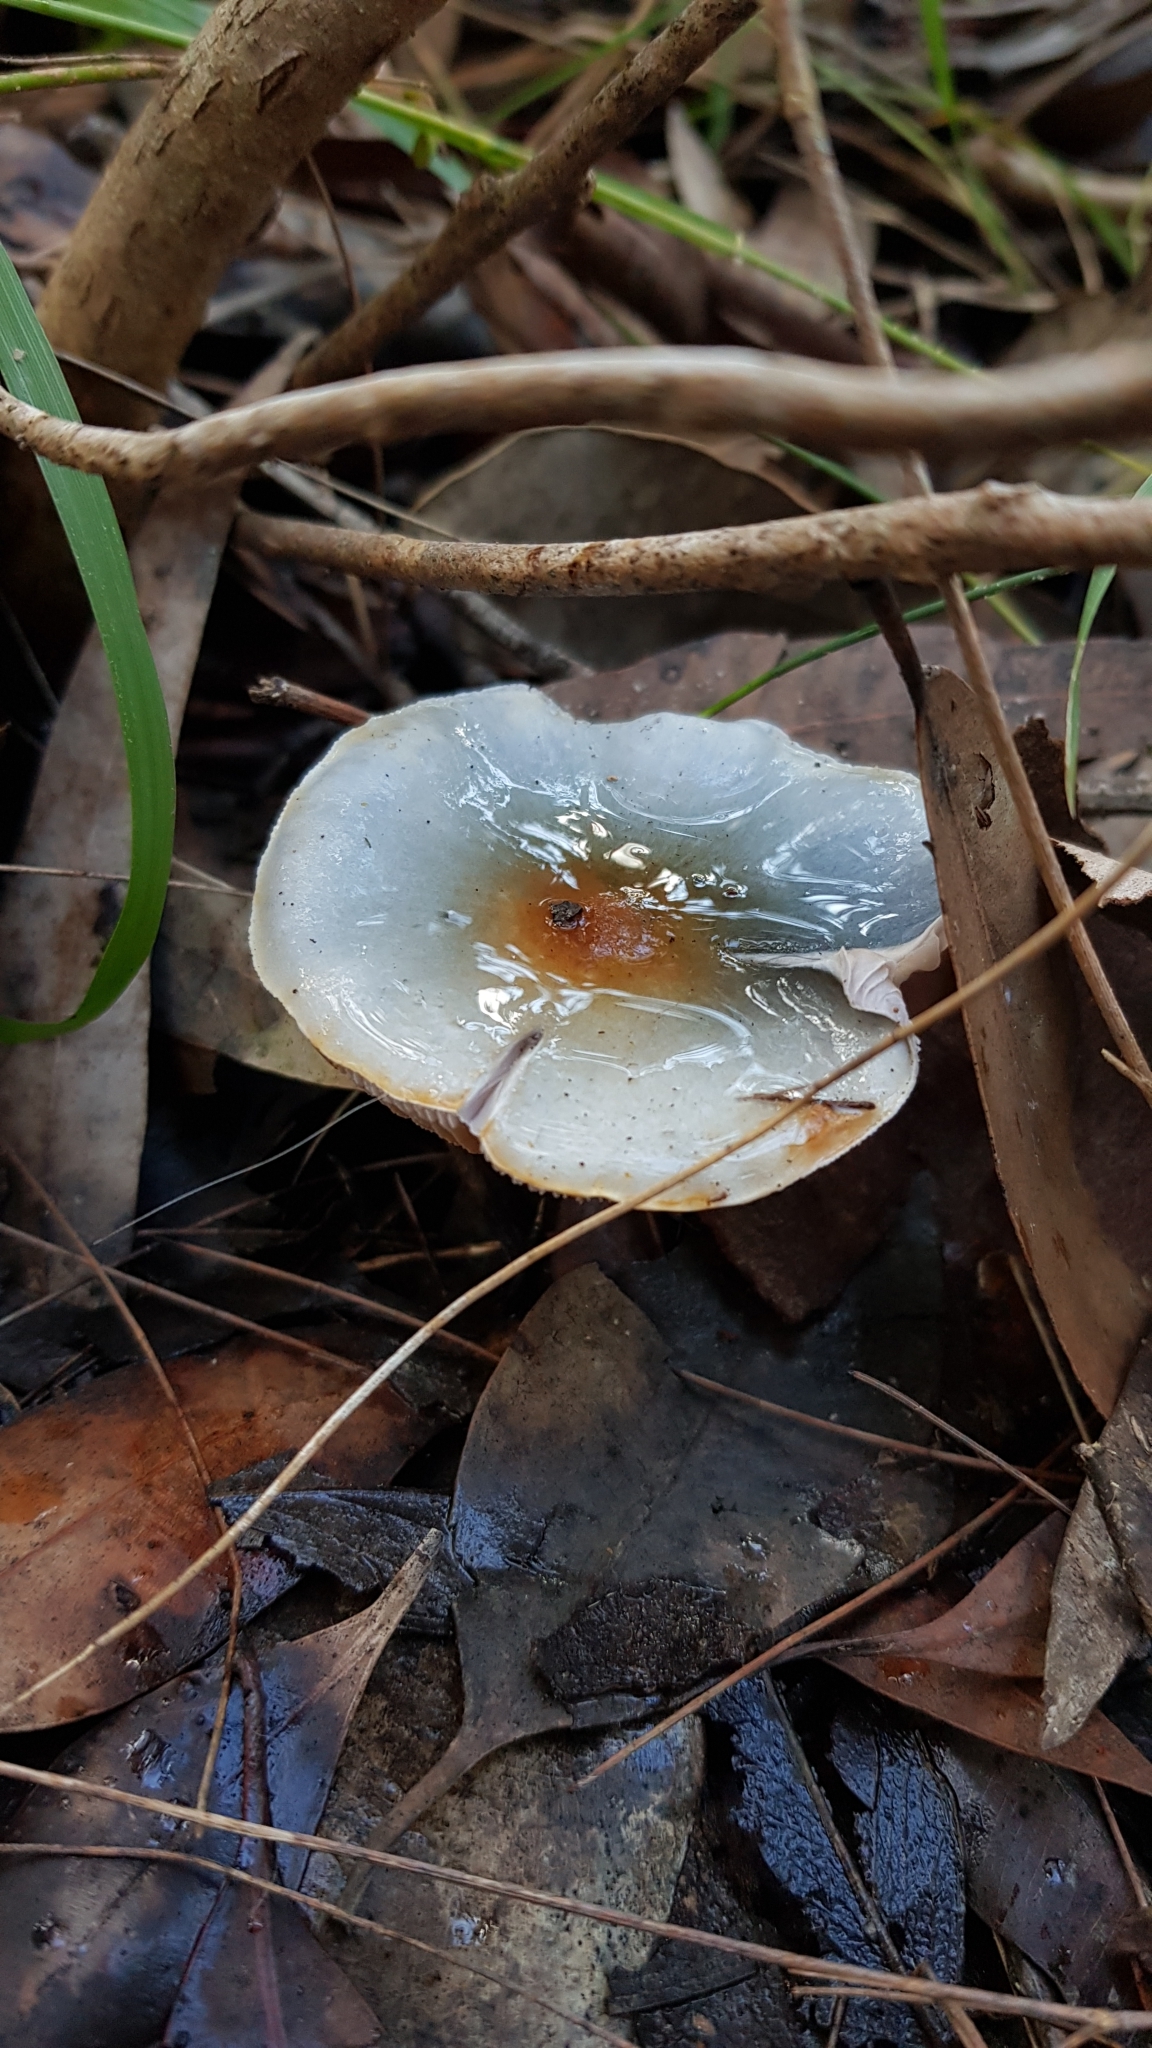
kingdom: Fungi
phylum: Basidiomycota
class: Agaricomycetes
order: Agaricales
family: Cortinariaceae
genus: Cortinarius
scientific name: Cortinarius rotundisporus
